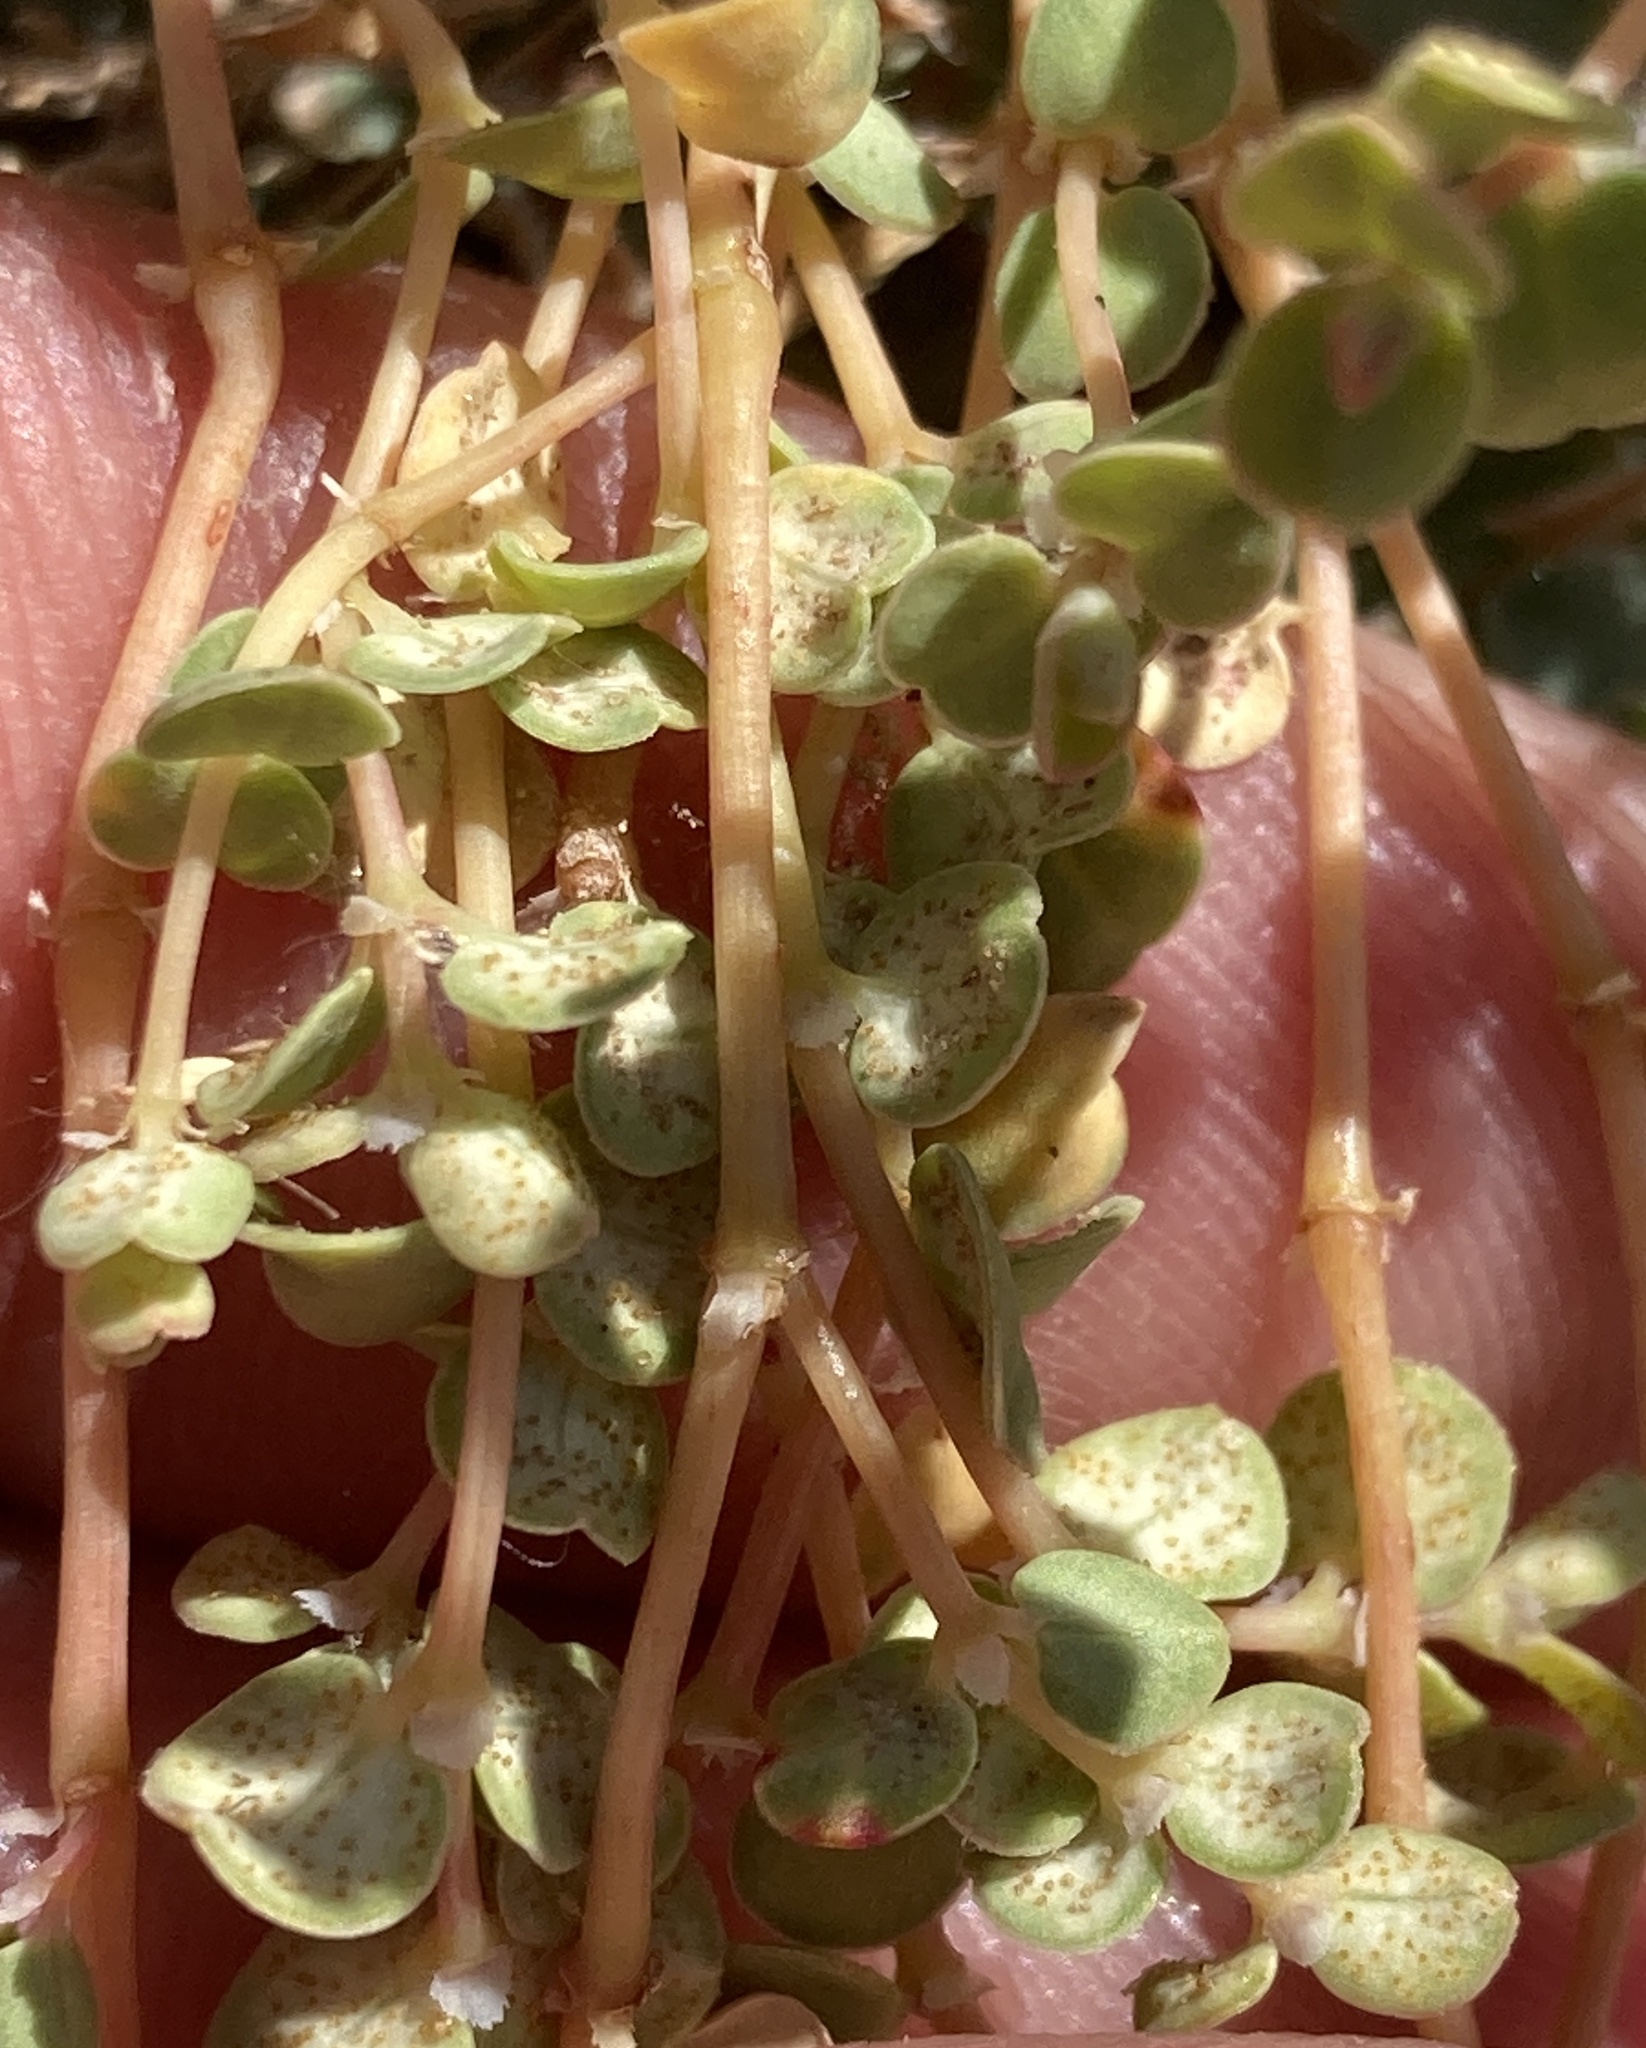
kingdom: Fungi
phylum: Basidiomycota
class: Pucciniomycetes
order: Pucciniales
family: Pucciniaceae
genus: Uromyces
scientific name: Uromyces proeminens
